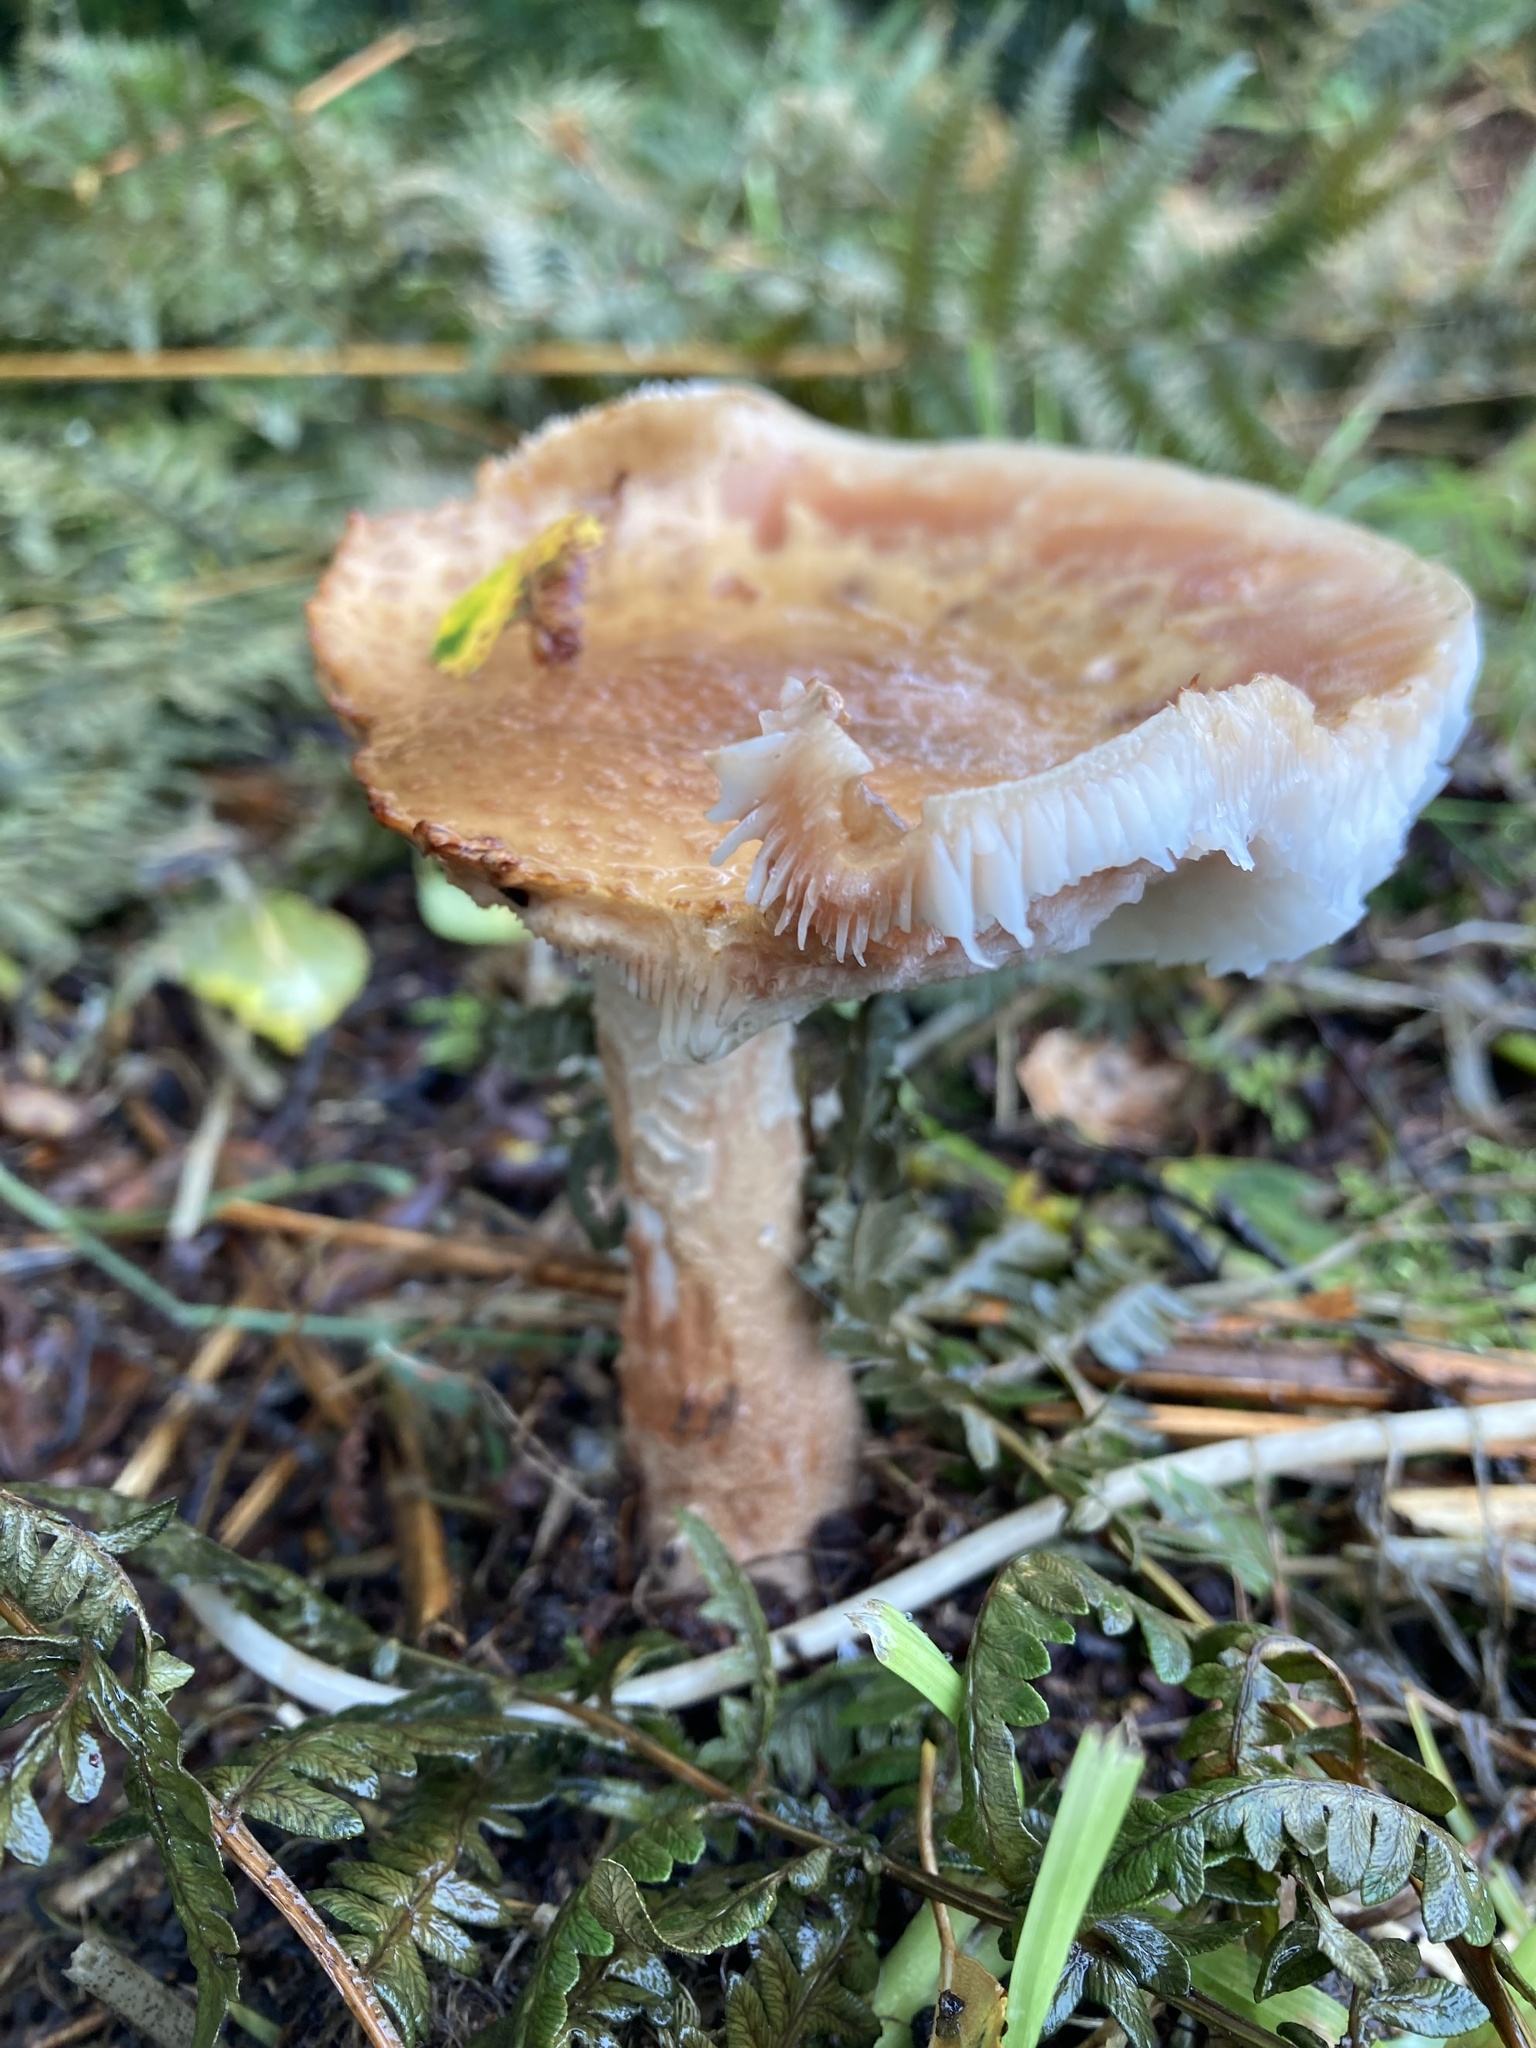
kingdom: Fungi
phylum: Basidiomycota
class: Agaricomycetes
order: Agaricales
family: Amanitaceae
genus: Amanita
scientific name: Amanita rubescens
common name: Blusher
